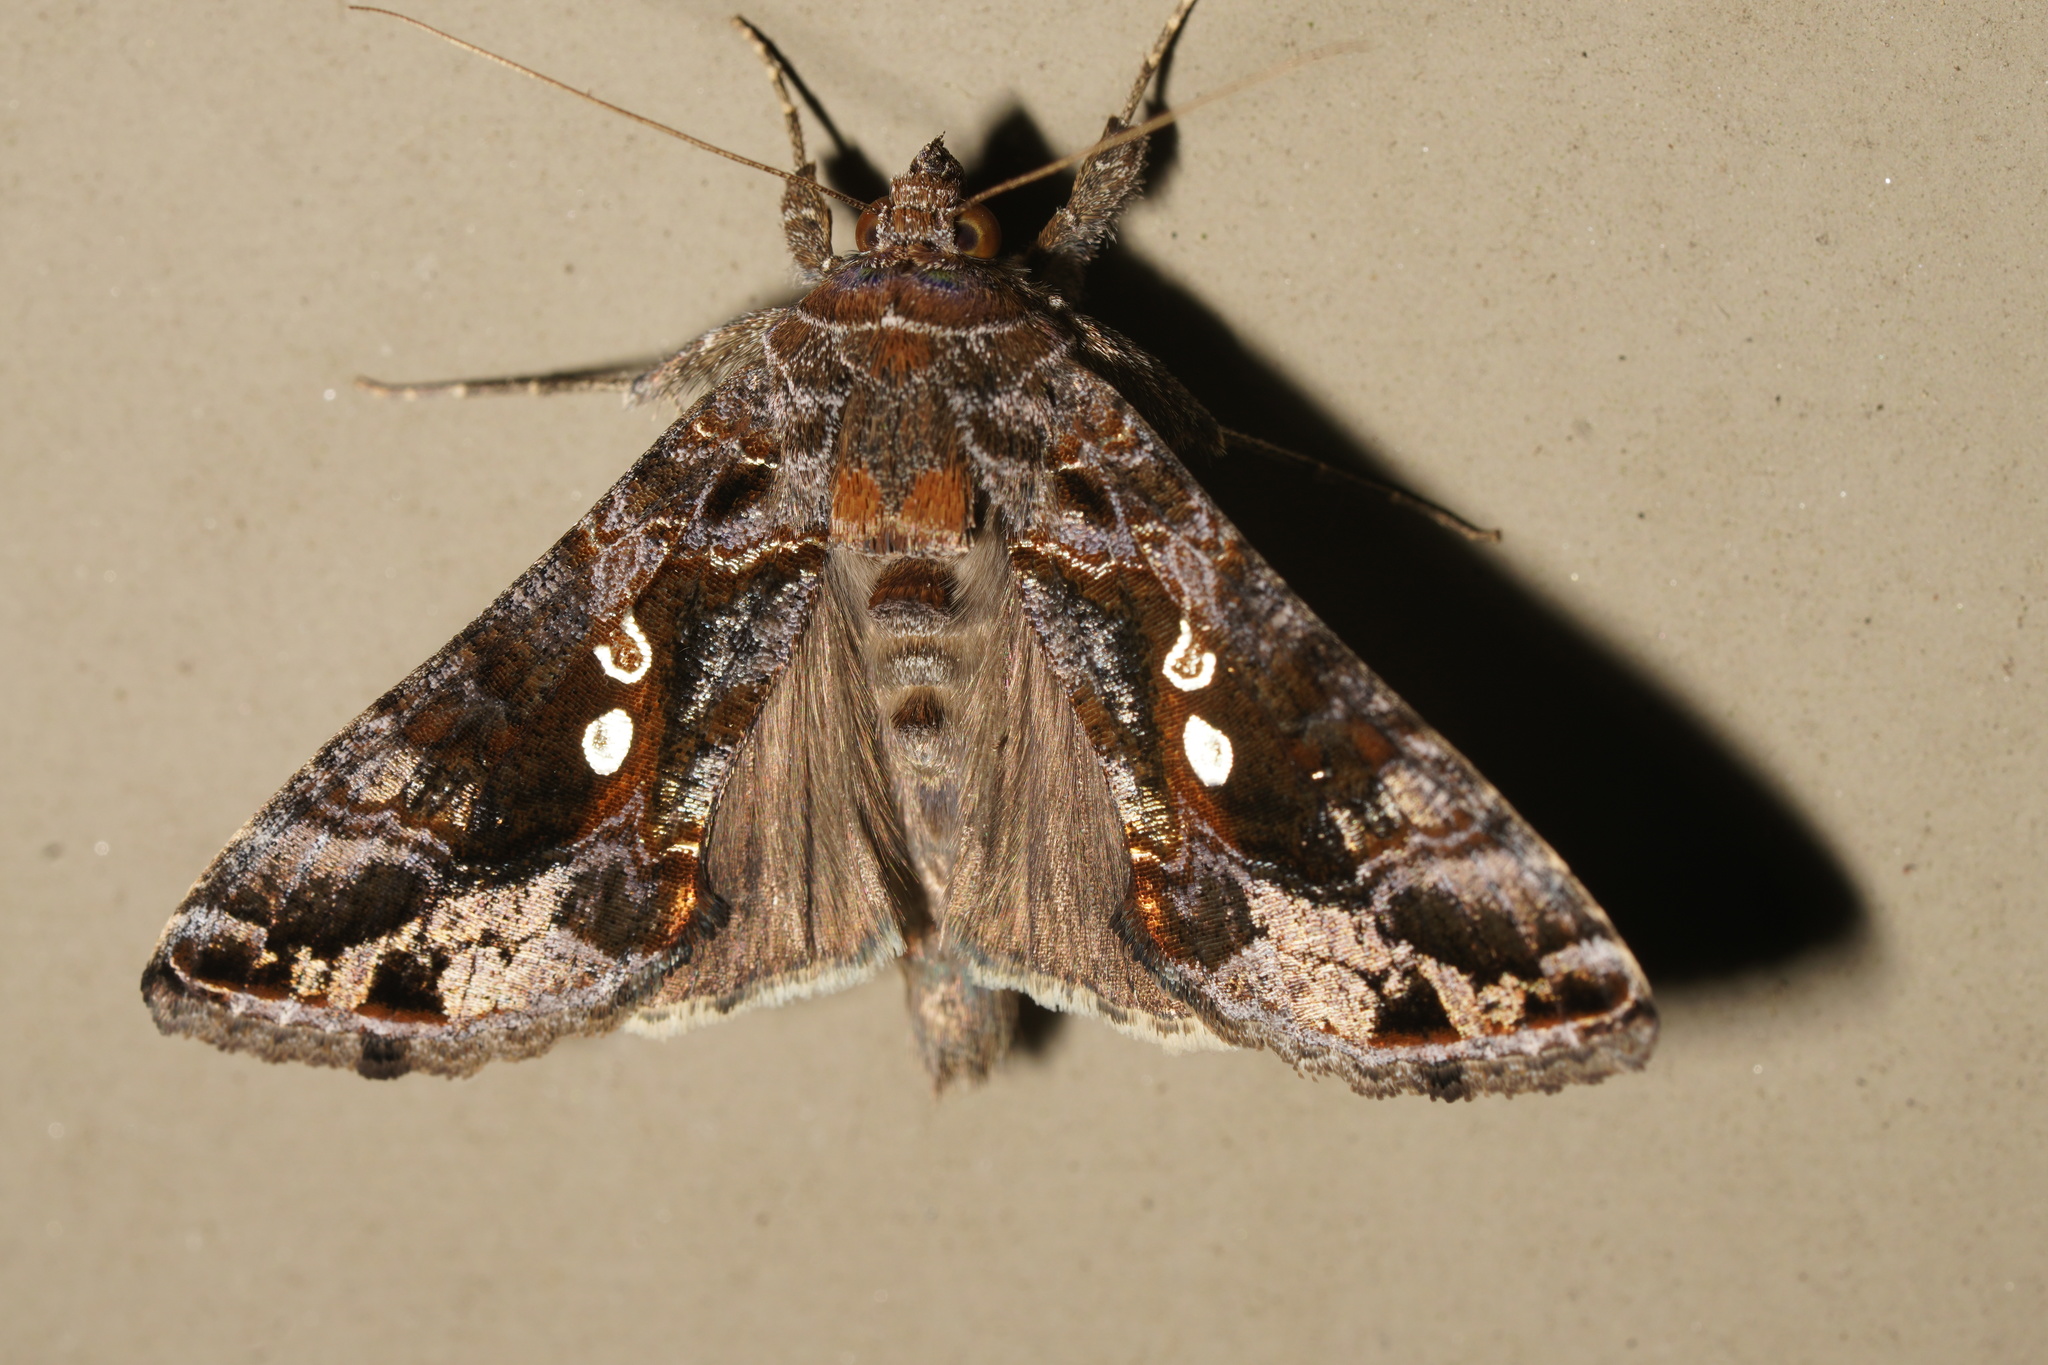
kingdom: Animalia
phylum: Arthropoda
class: Insecta
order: Lepidoptera
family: Noctuidae
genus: Chrysodeixis
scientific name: Chrysodeixis includens
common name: Cutworm moth
